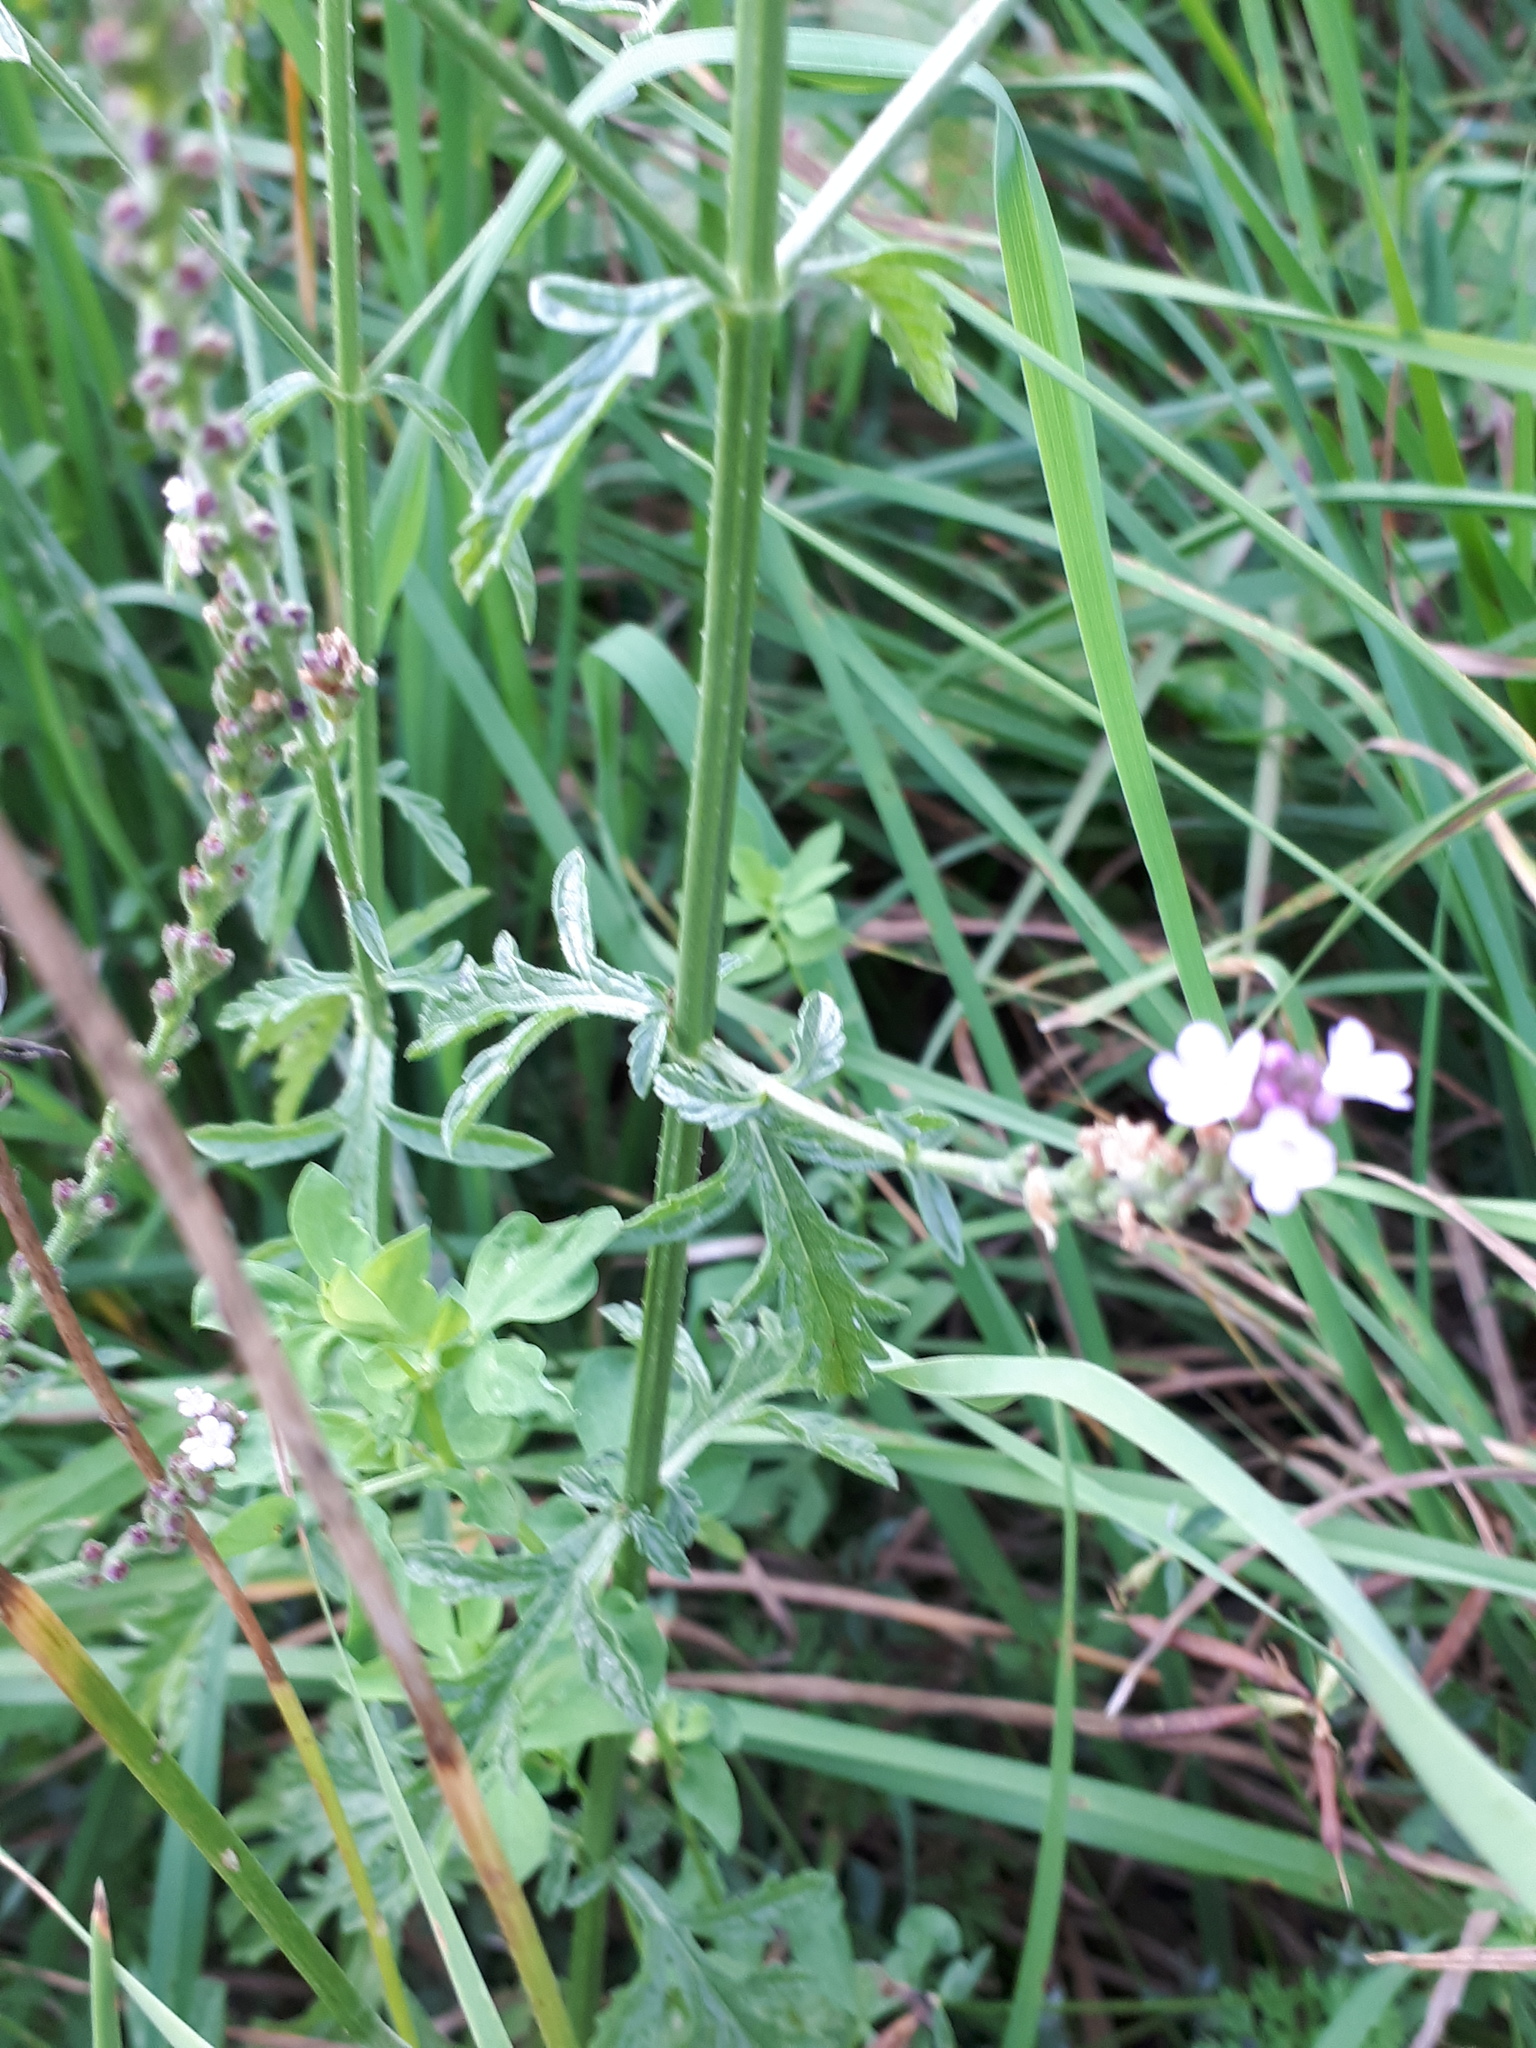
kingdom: Plantae
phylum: Tracheophyta
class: Magnoliopsida
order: Lamiales
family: Verbenaceae
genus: Verbena
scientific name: Verbena officinalis
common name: Vervain
